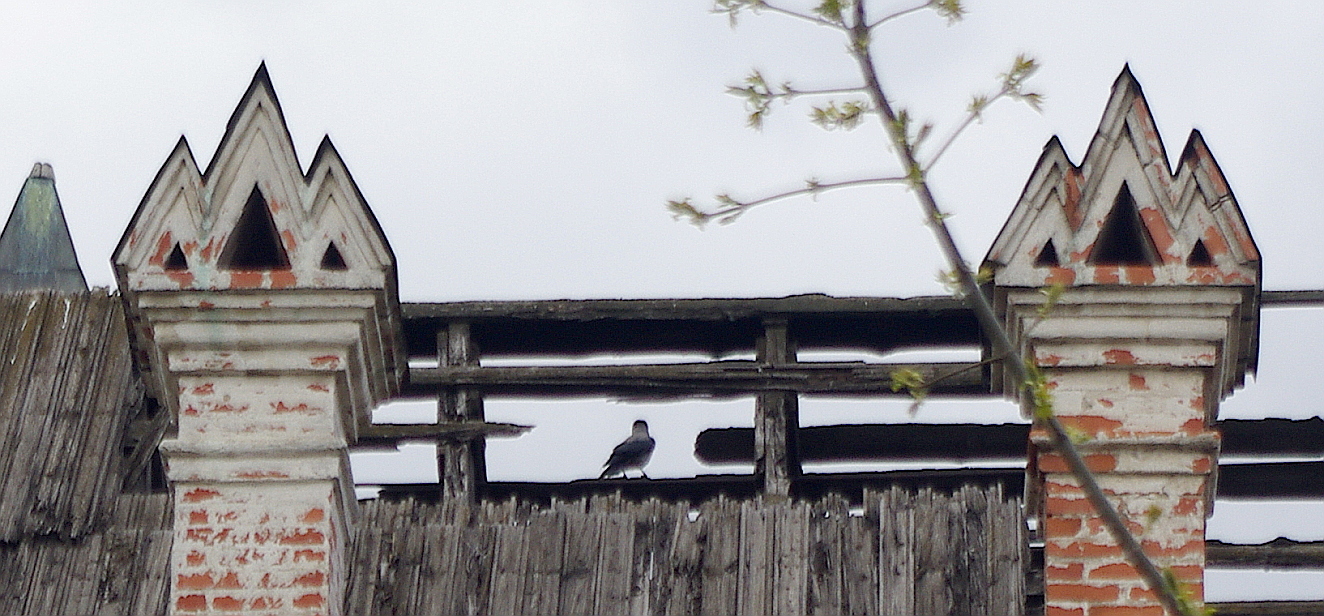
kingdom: Animalia
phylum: Chordata
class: Aves
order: Passeriformes
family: Corvidae
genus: Corvus
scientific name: Corvus cornix
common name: Hooded crow
